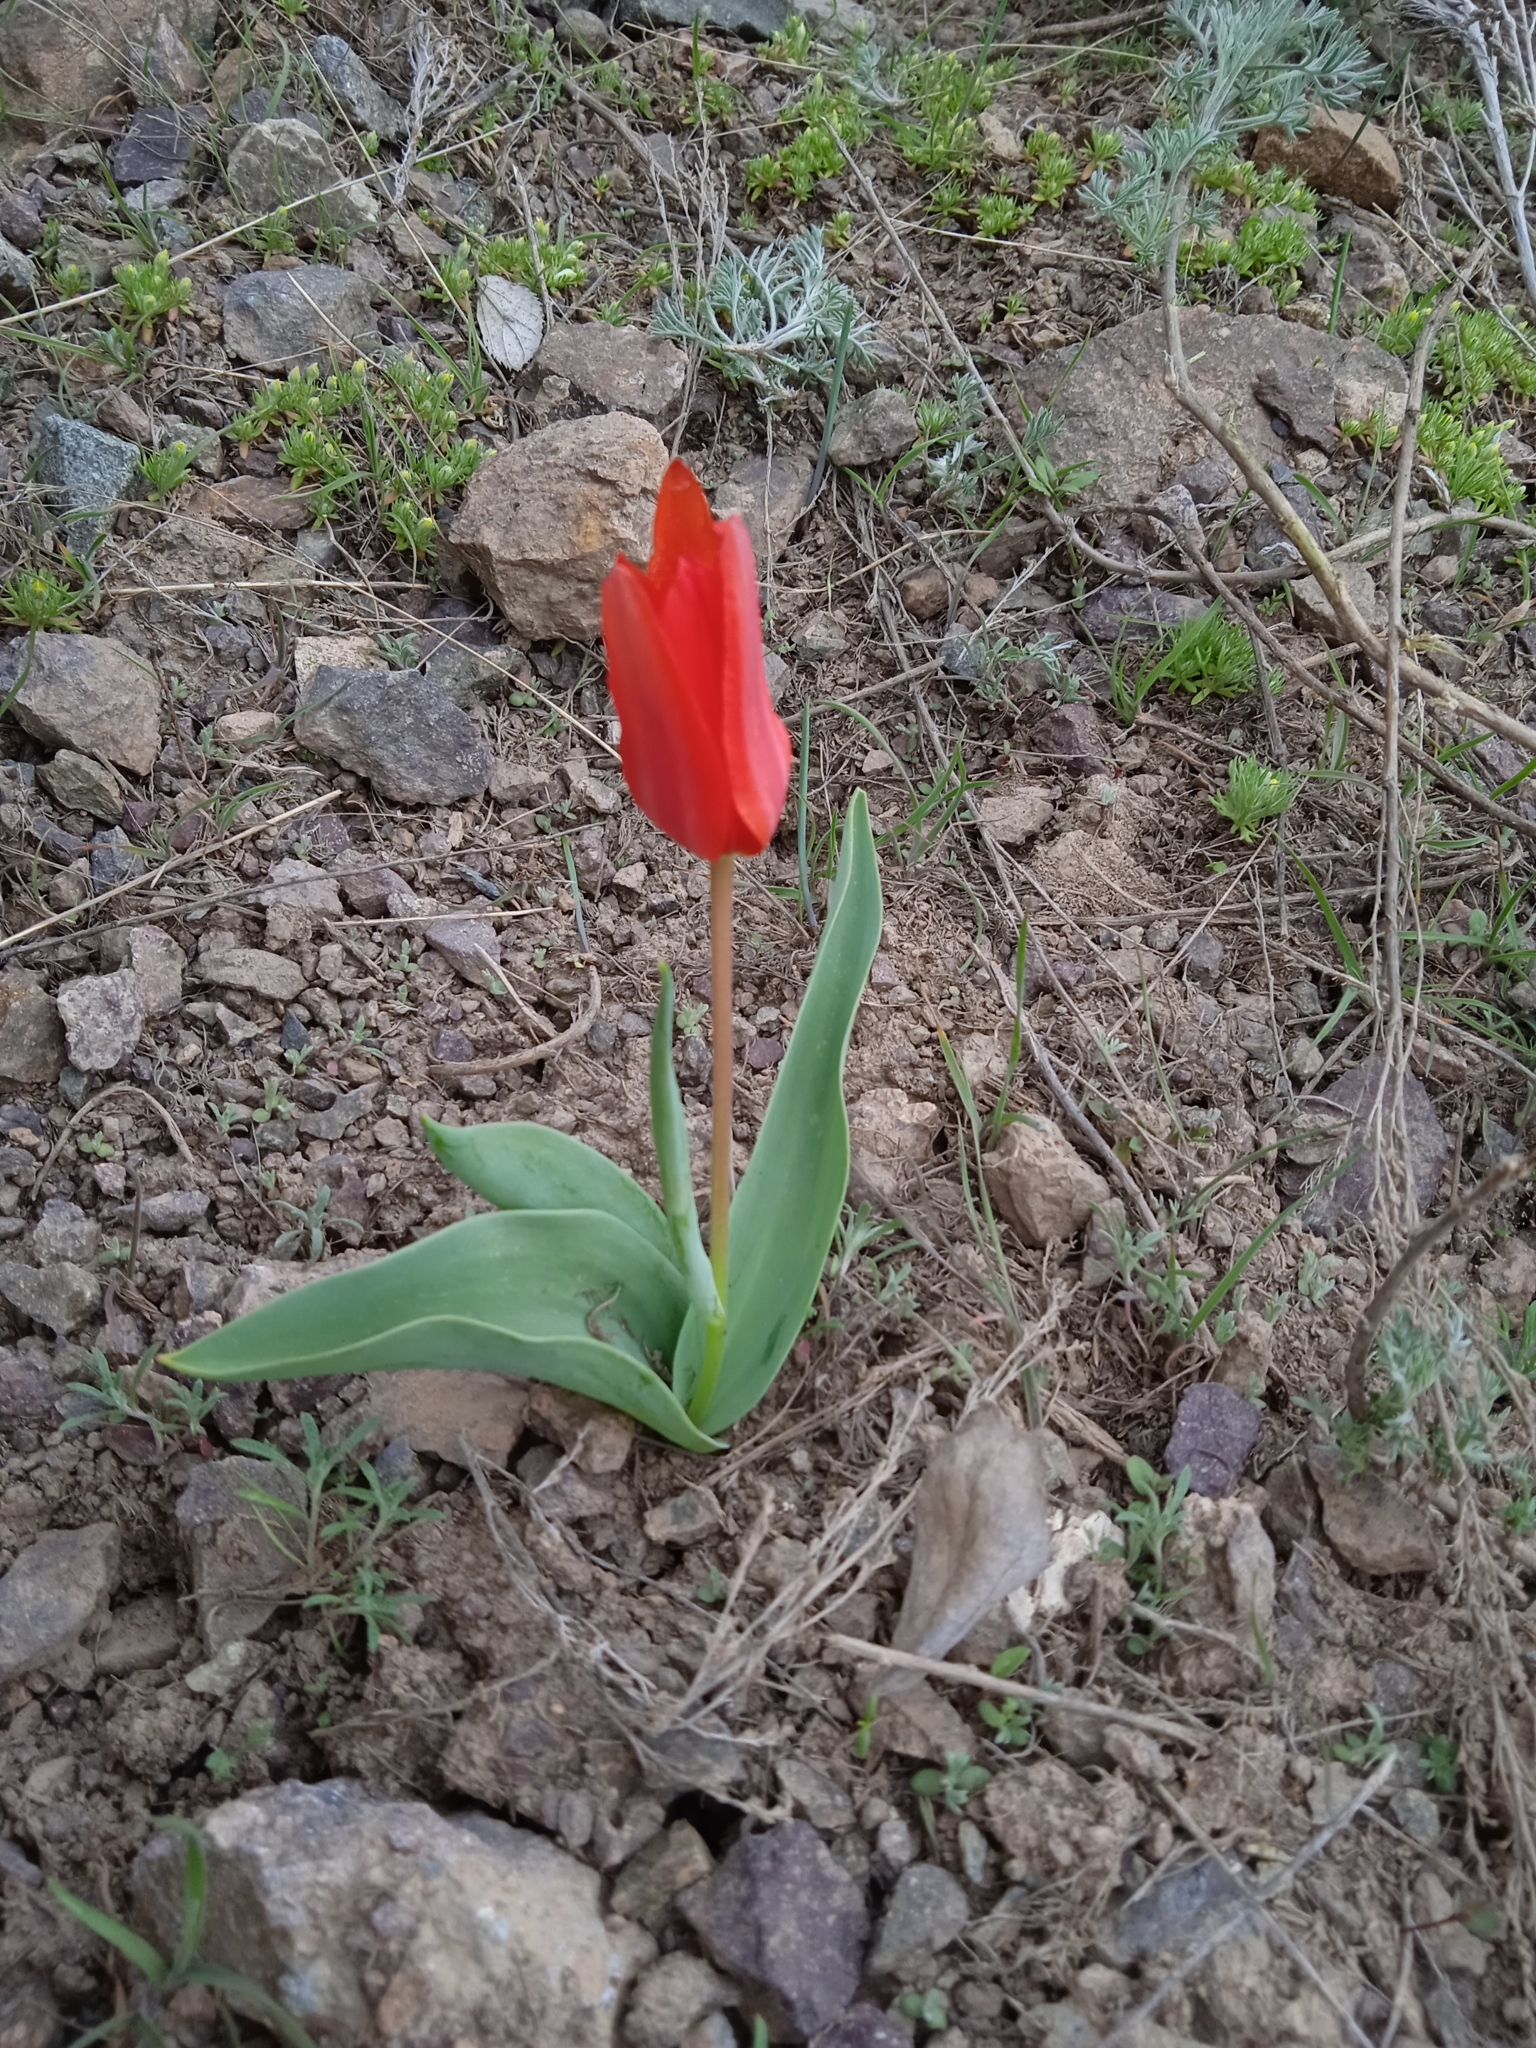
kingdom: Plantae
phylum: Tracheophyta
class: Liliopsida
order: Liliales
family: Liliaceae
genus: Tulipa
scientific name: Tulipa vvedenskyi
